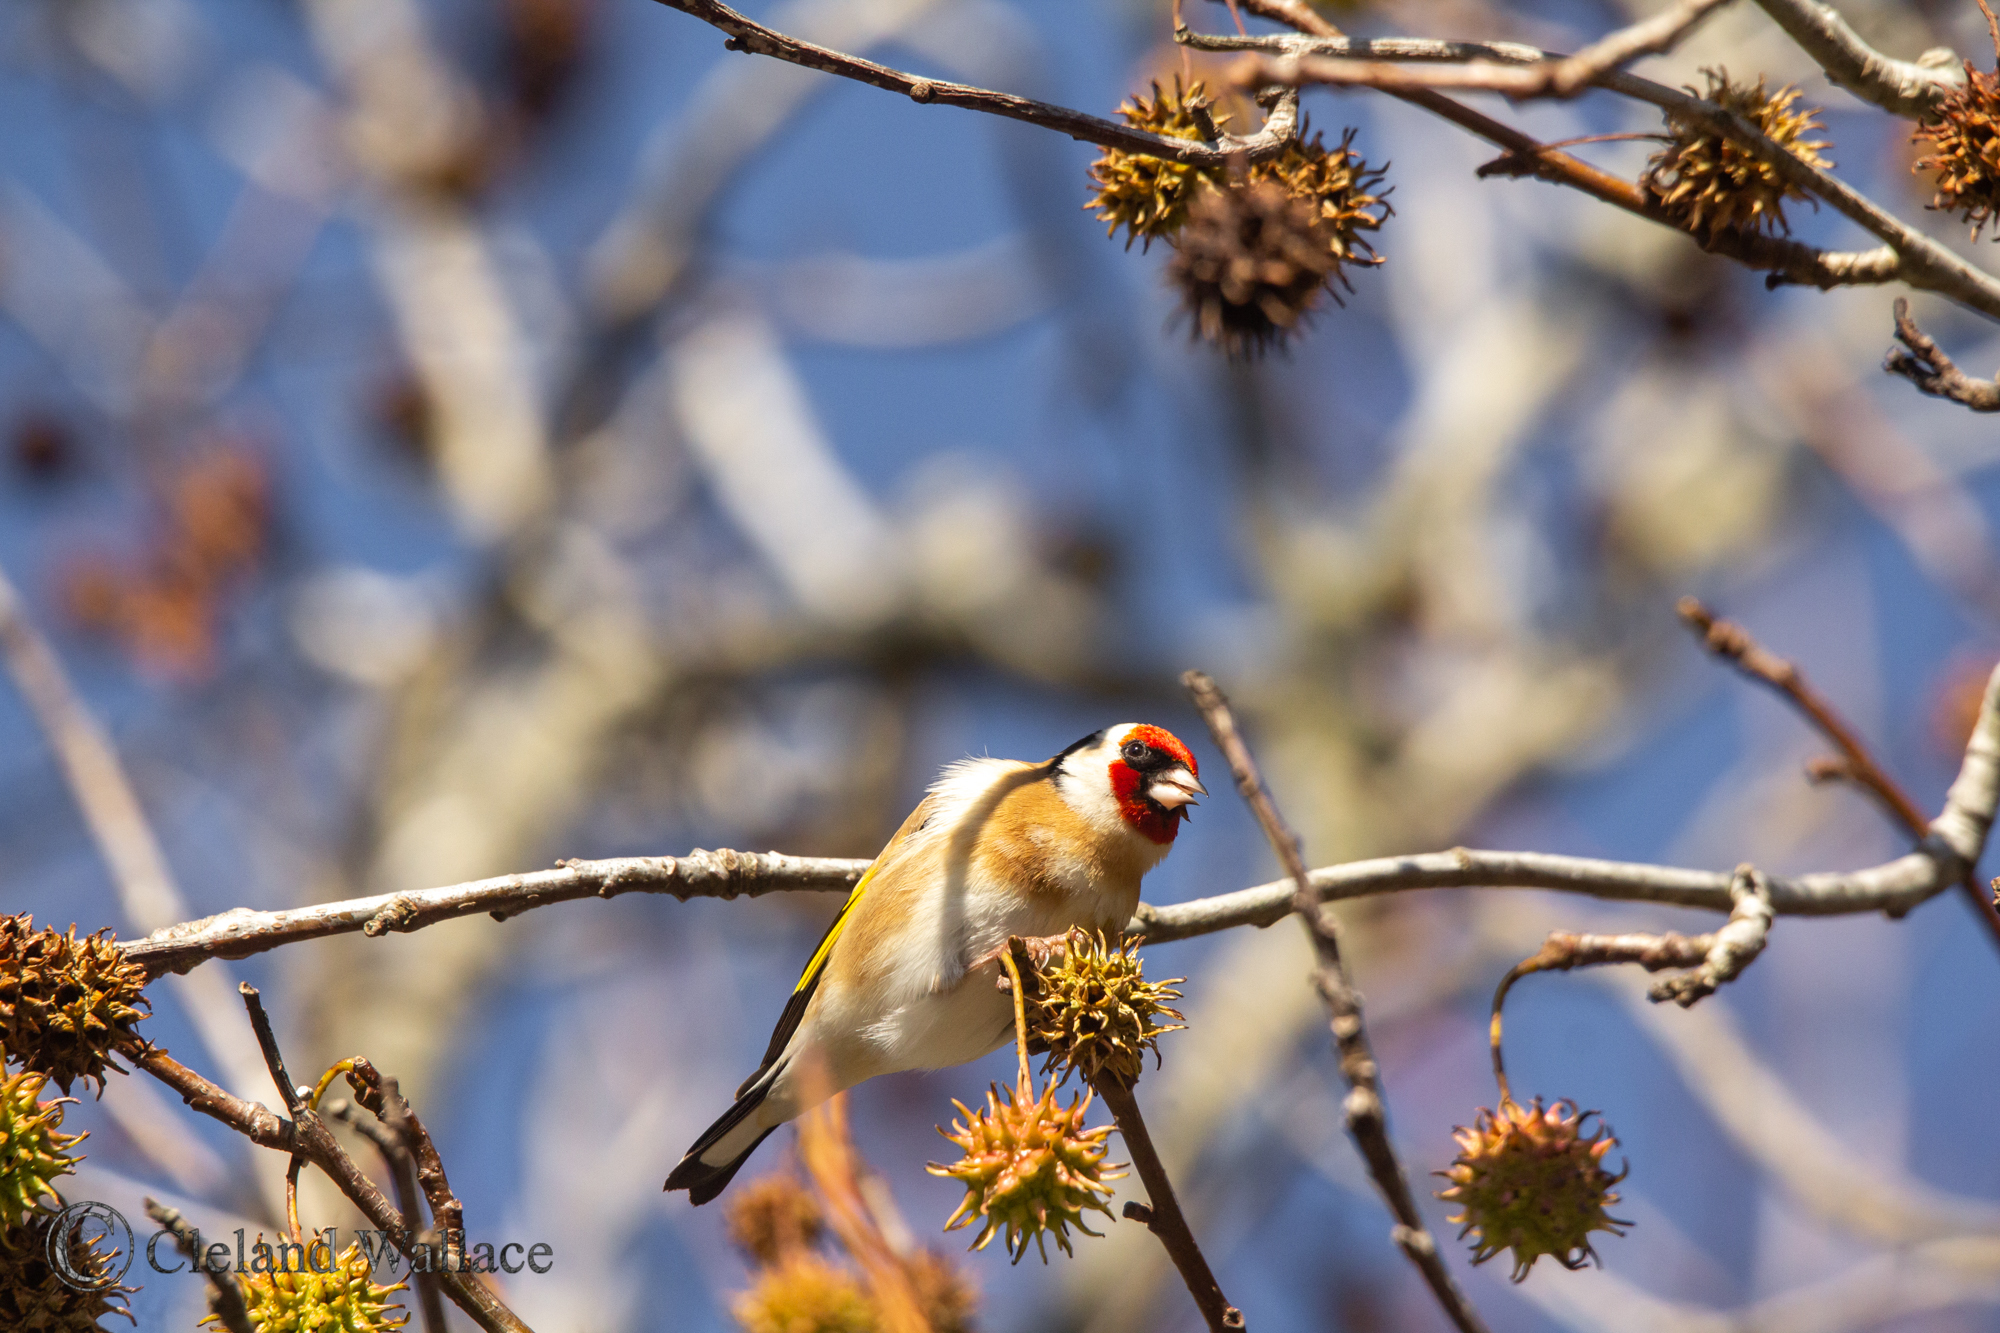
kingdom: Animalia
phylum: Chordata
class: Aves
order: Passeriformes
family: Fringillidae
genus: Carduelis
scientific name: Carduelis carduelis
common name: European goldfinch
